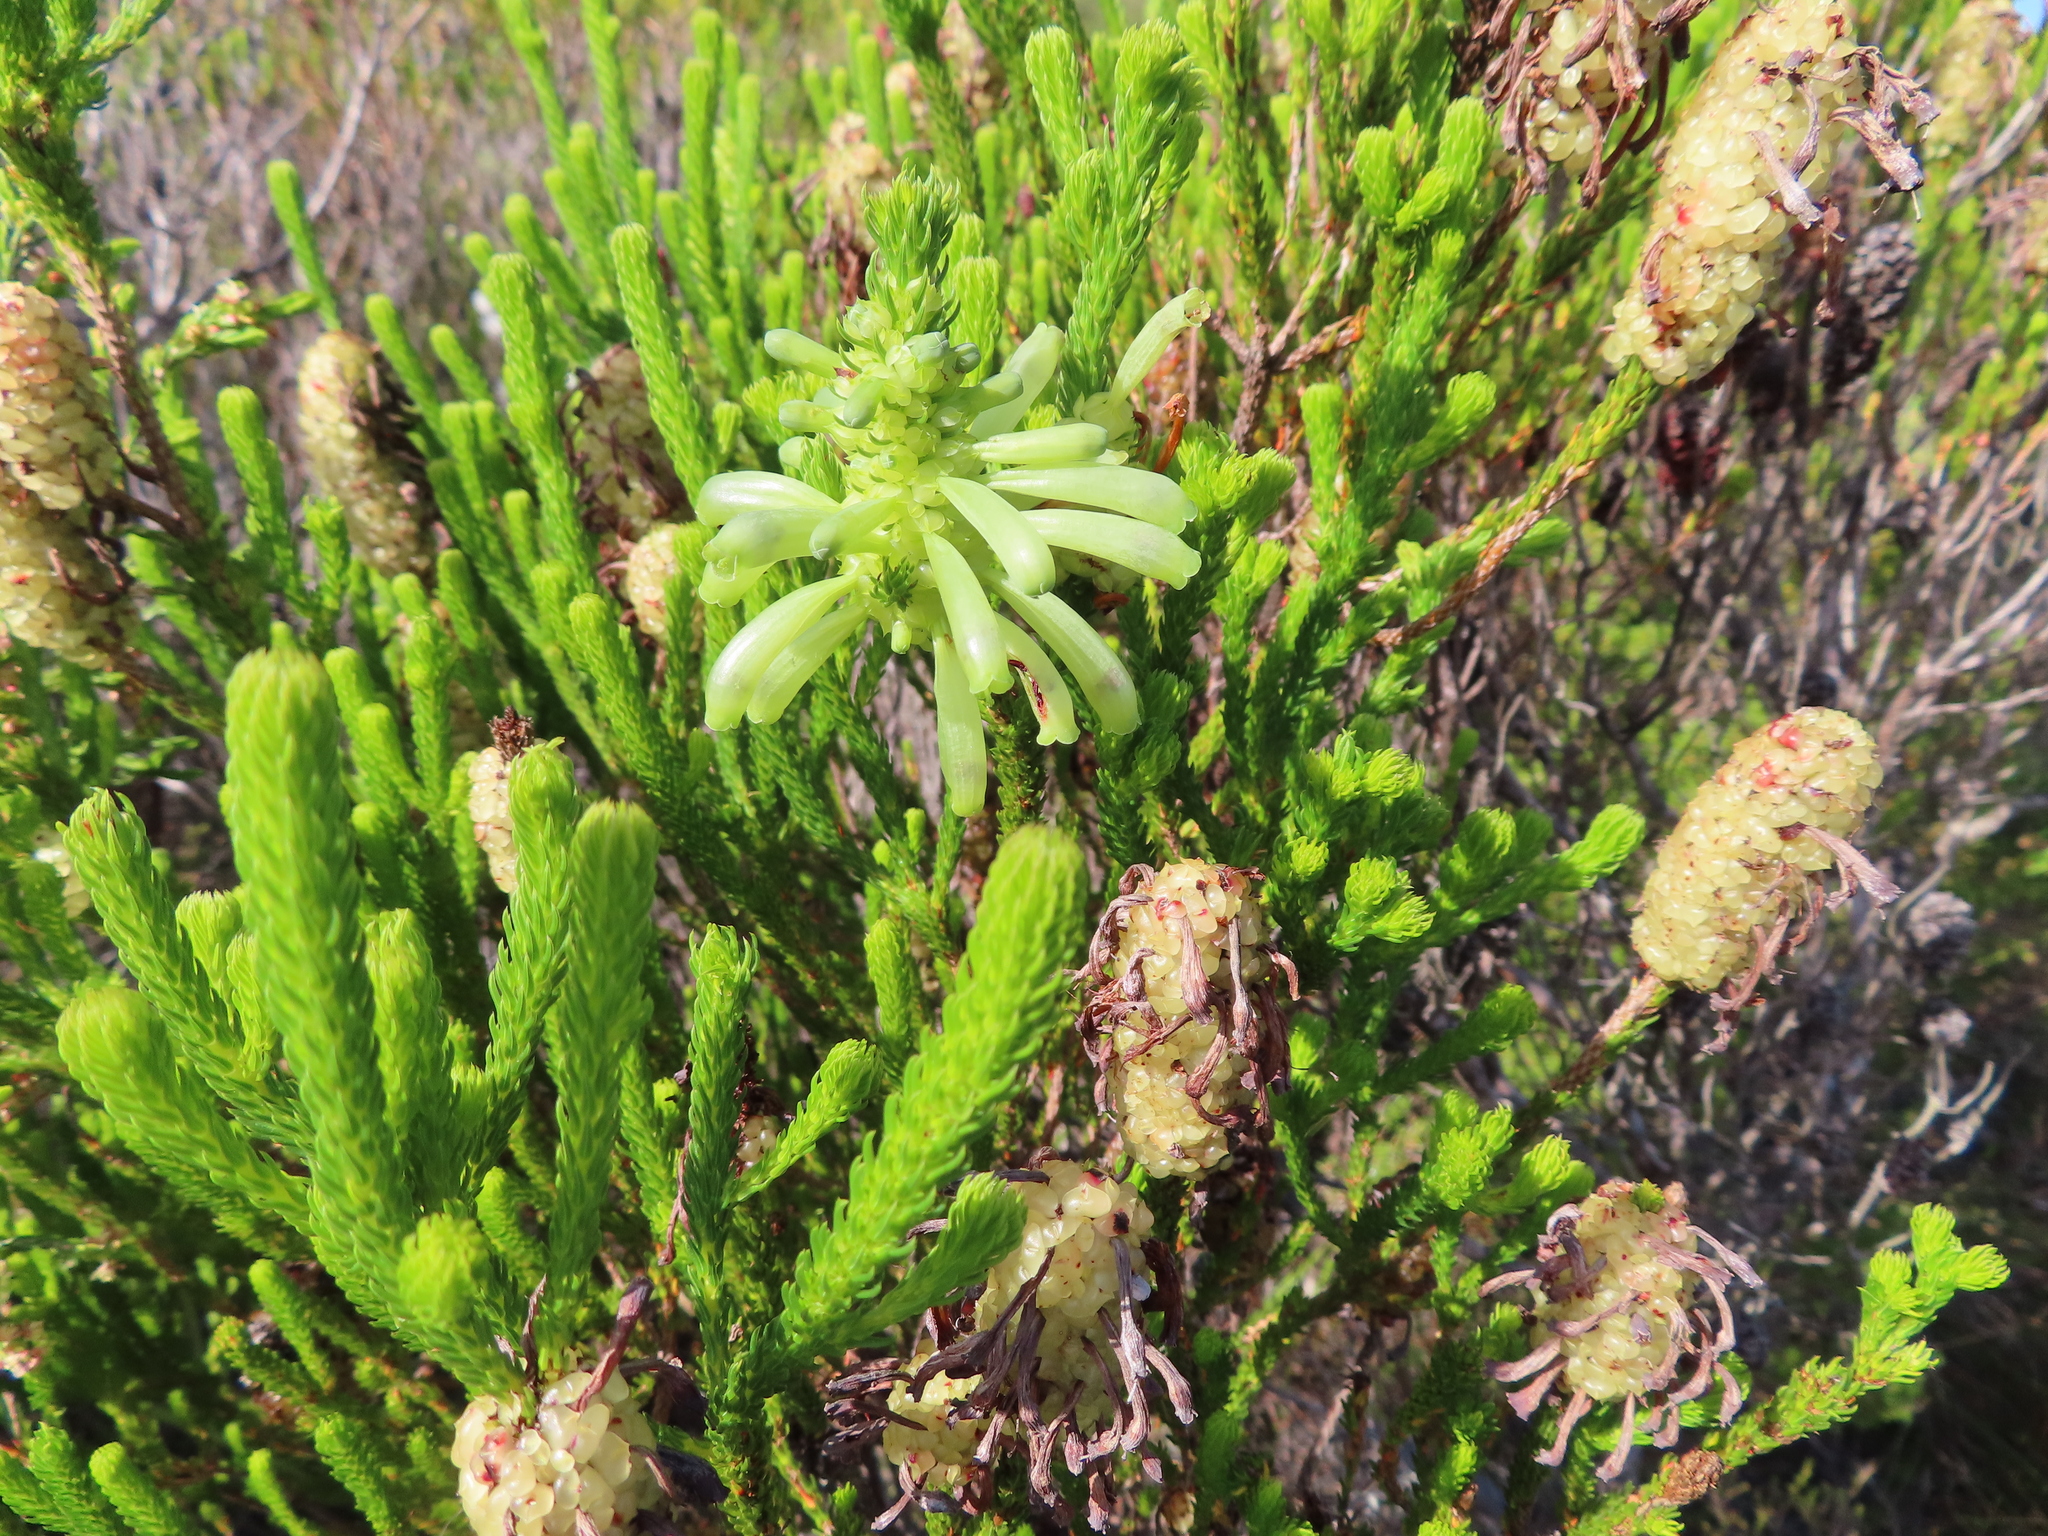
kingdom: Plantae
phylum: Tracheophyta
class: Magnoliopsida
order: Ericales
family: Ericaceae
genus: Erica
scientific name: Erica sessiliflora
